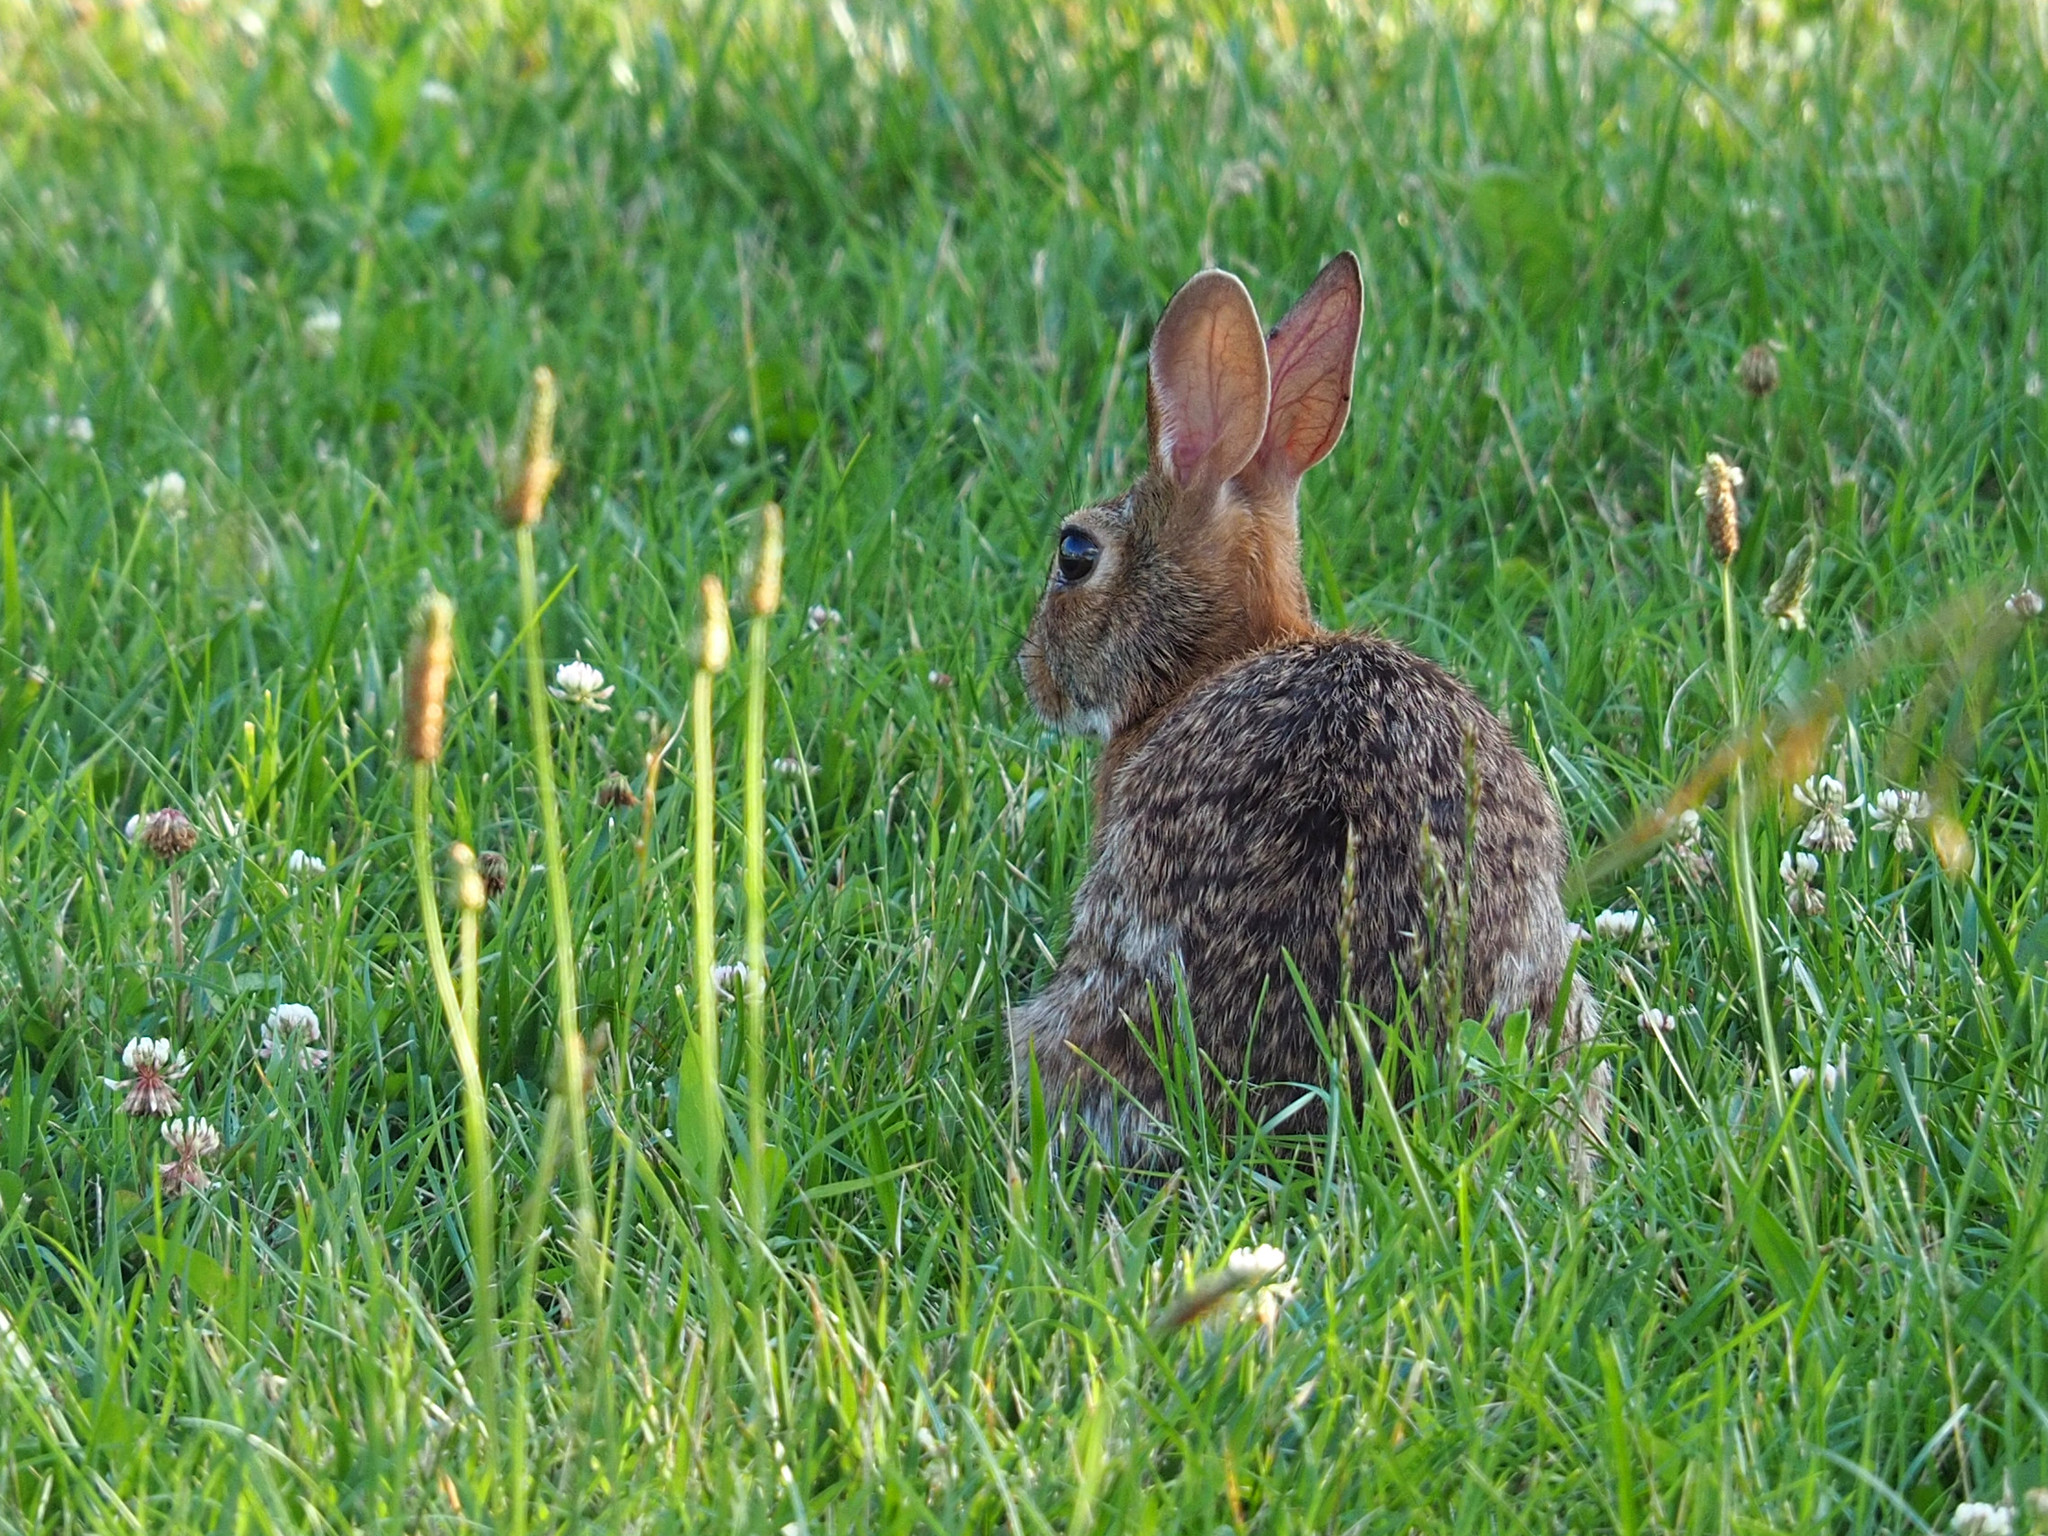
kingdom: Animalia
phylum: Chordata
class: Mammalia
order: Lagomorpha
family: Leporidae
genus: Sylvilagus
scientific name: Sylvilagus floridanus
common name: Eastern cottontail
